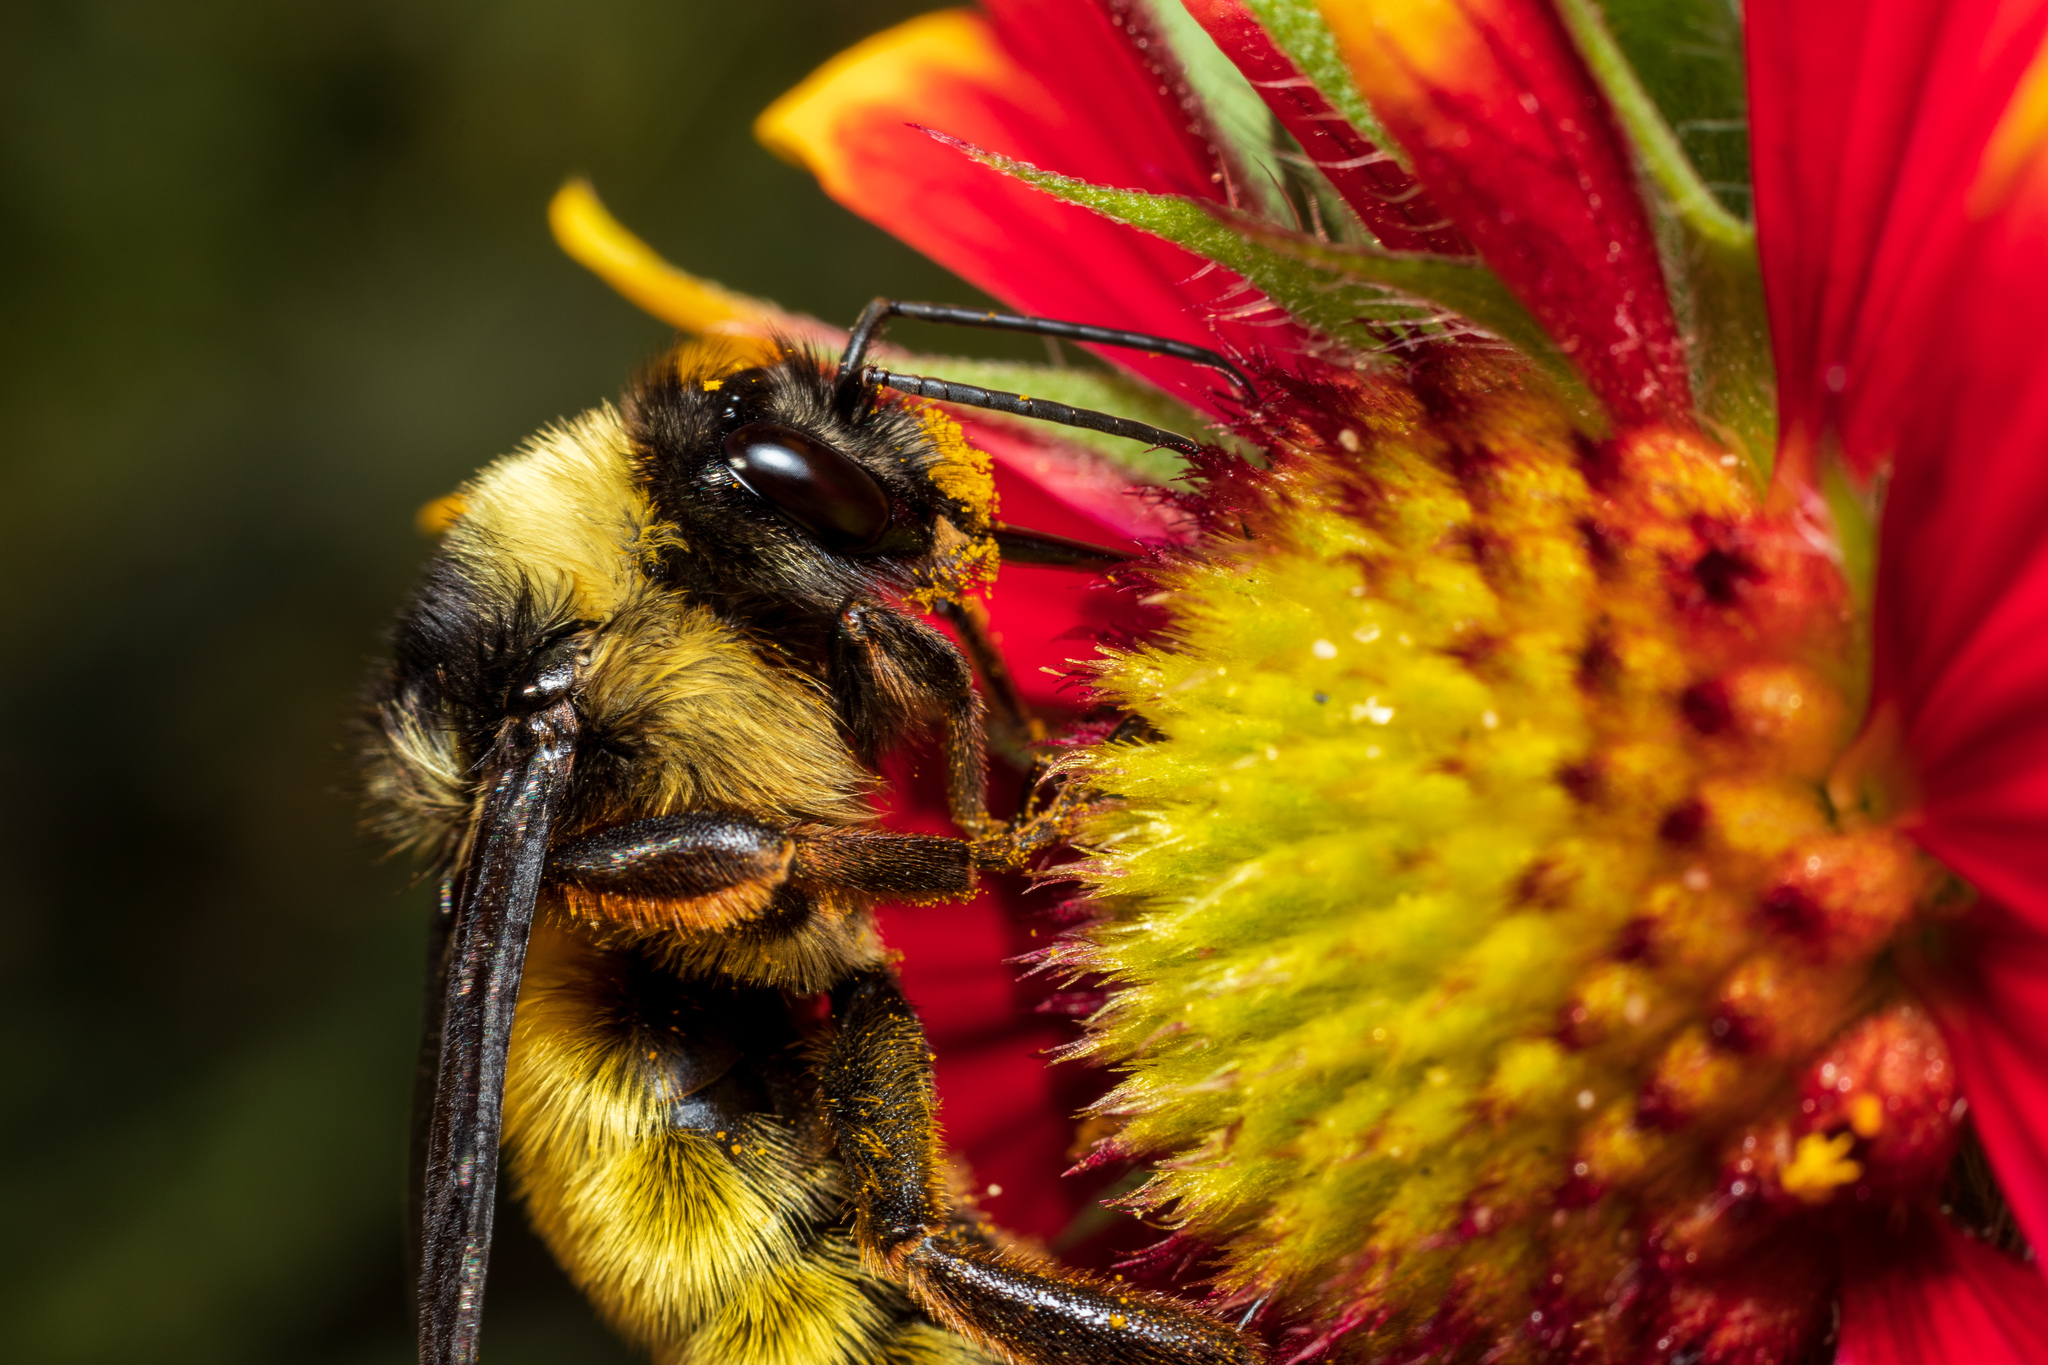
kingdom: Animalia
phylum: Arthropoda
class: Insecta
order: Hymenoptera
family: Apidae
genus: Bombus
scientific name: Bombus pensylvanicus
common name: Bumble bee
